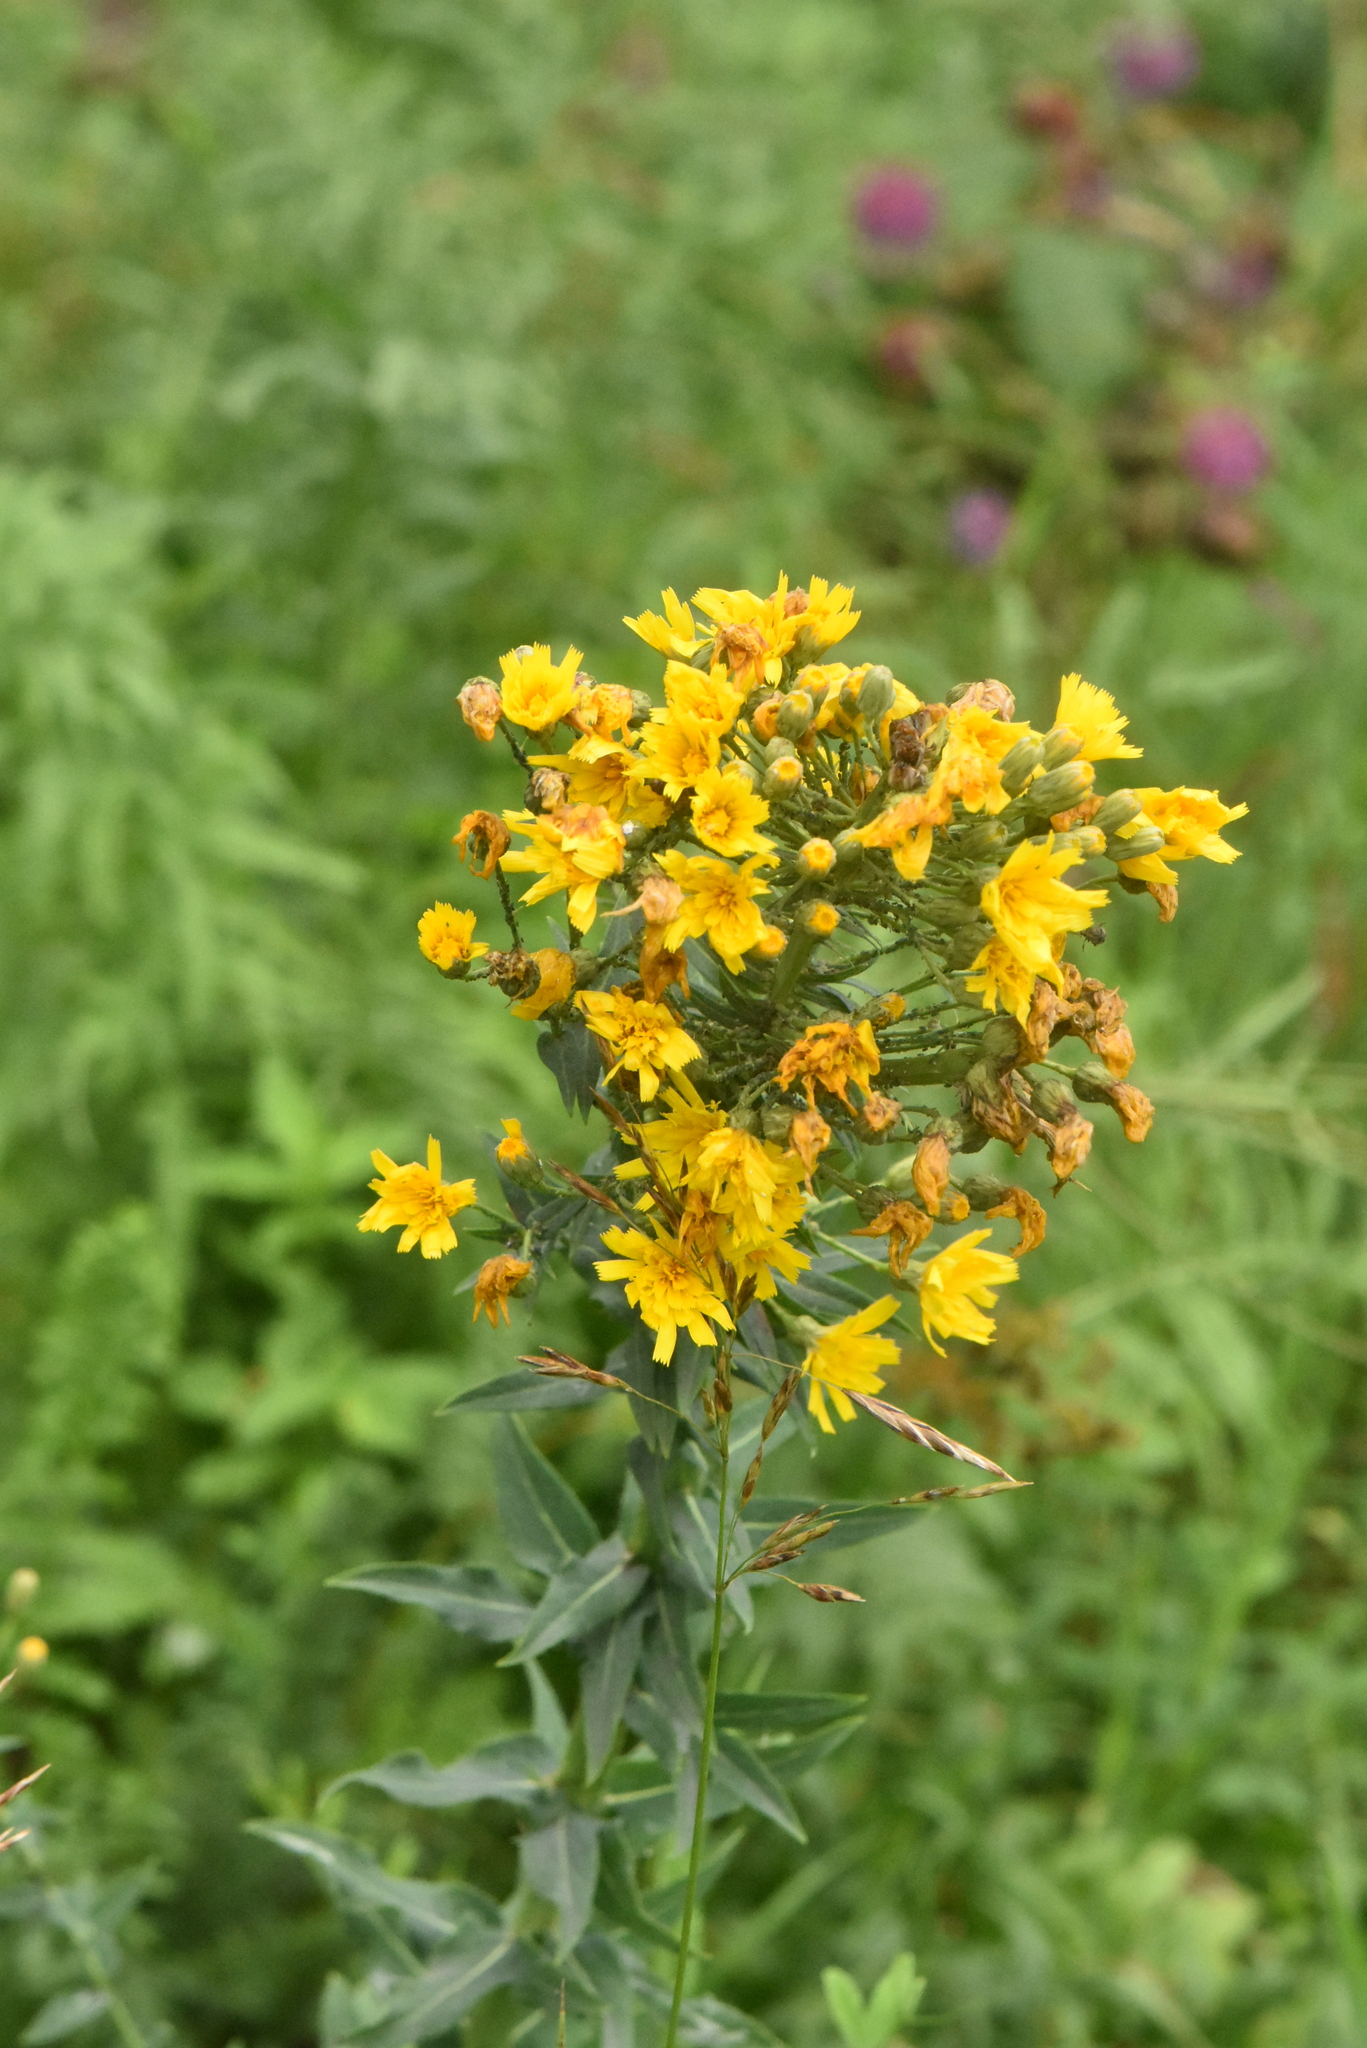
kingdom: Plantae
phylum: Tracheophyta
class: Magnoliopsida
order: Asterales
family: Asteraceae
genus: Hieracium
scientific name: Hieracium robustum
